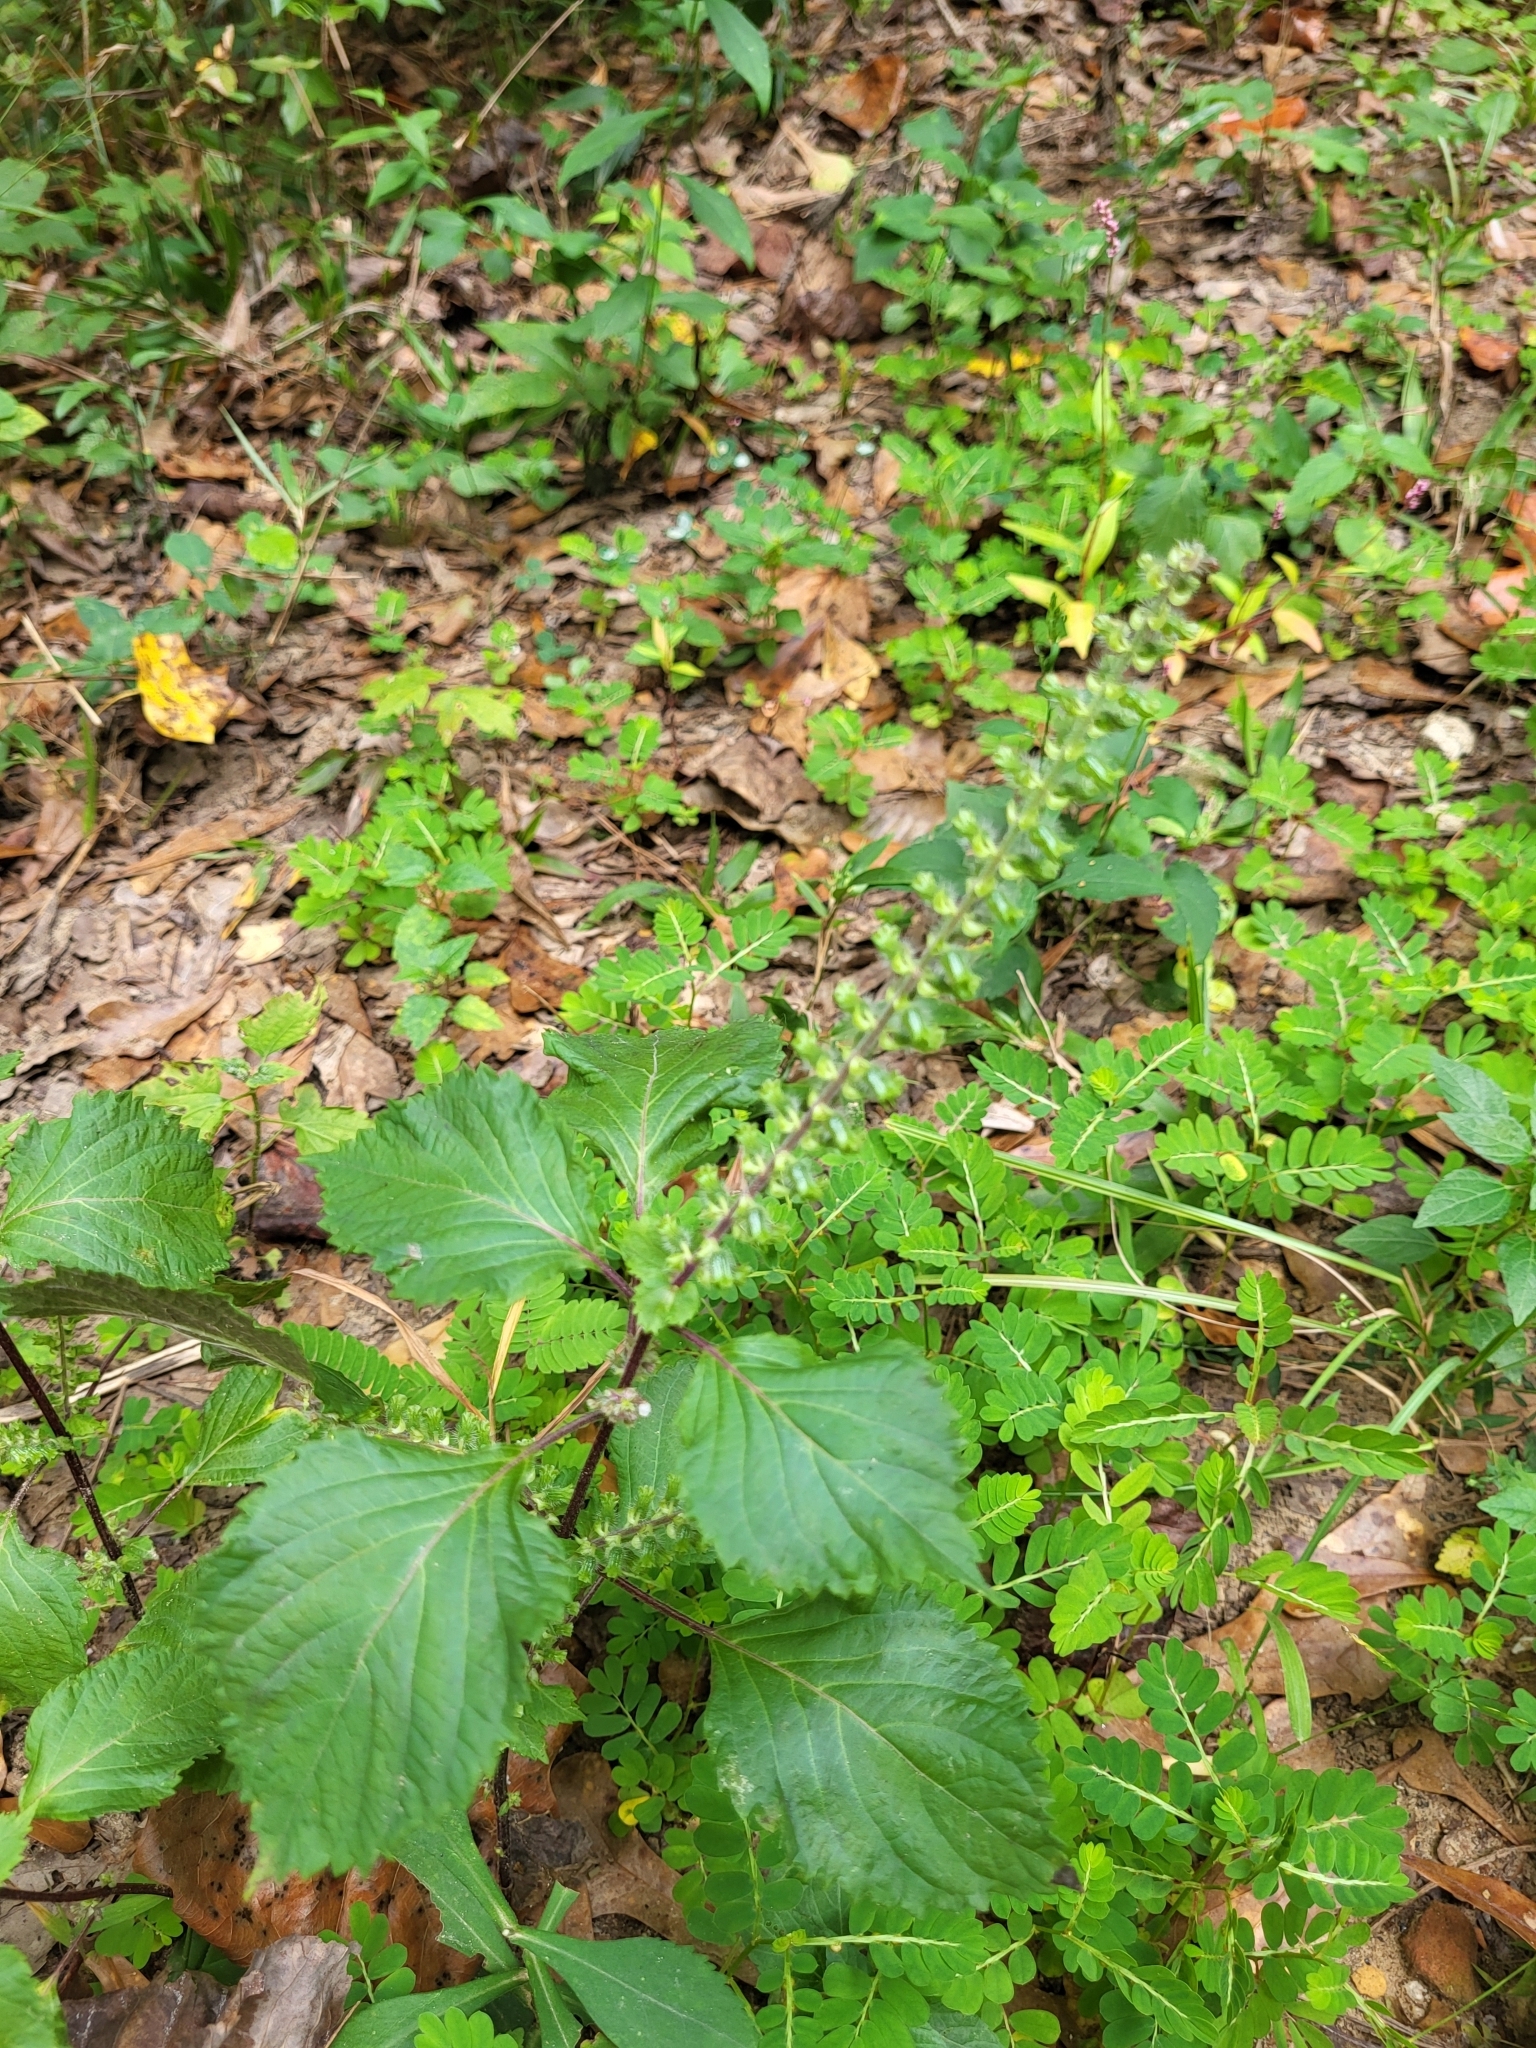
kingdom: Plantae
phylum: Tracheophyta
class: Magnoliopsida
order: Lamiales
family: Lamiaceae
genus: Perilla
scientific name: Perilla frutescens
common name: Perilla
